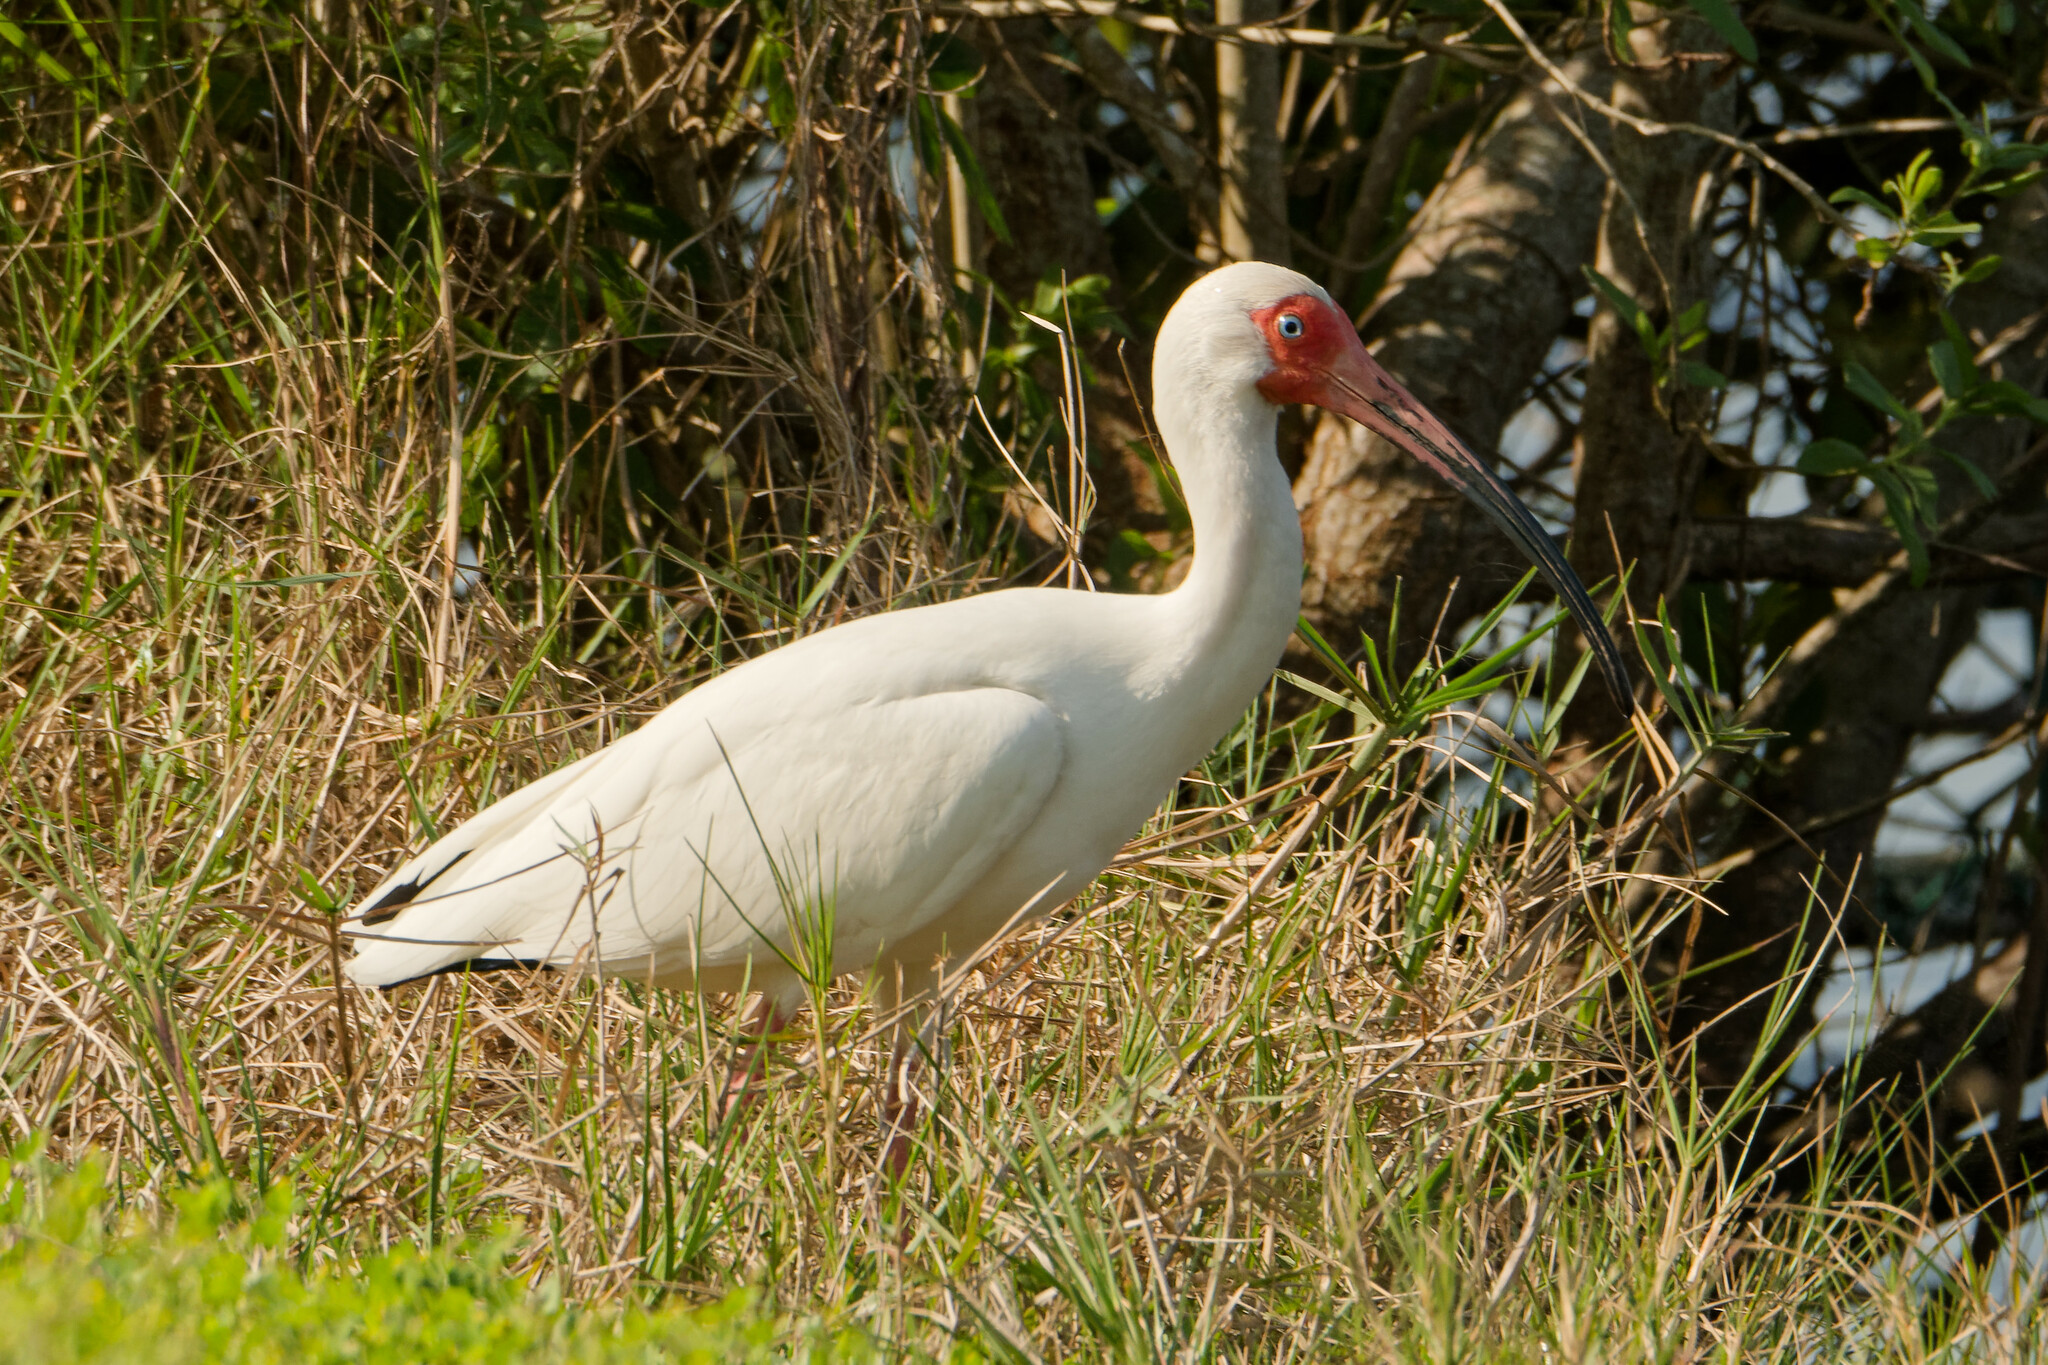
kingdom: Animalia
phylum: Chordata
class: Aves
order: Pelecaniformes
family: Threskiornithidae
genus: Eudocimus
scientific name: Eudocimus albus
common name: White ibis
